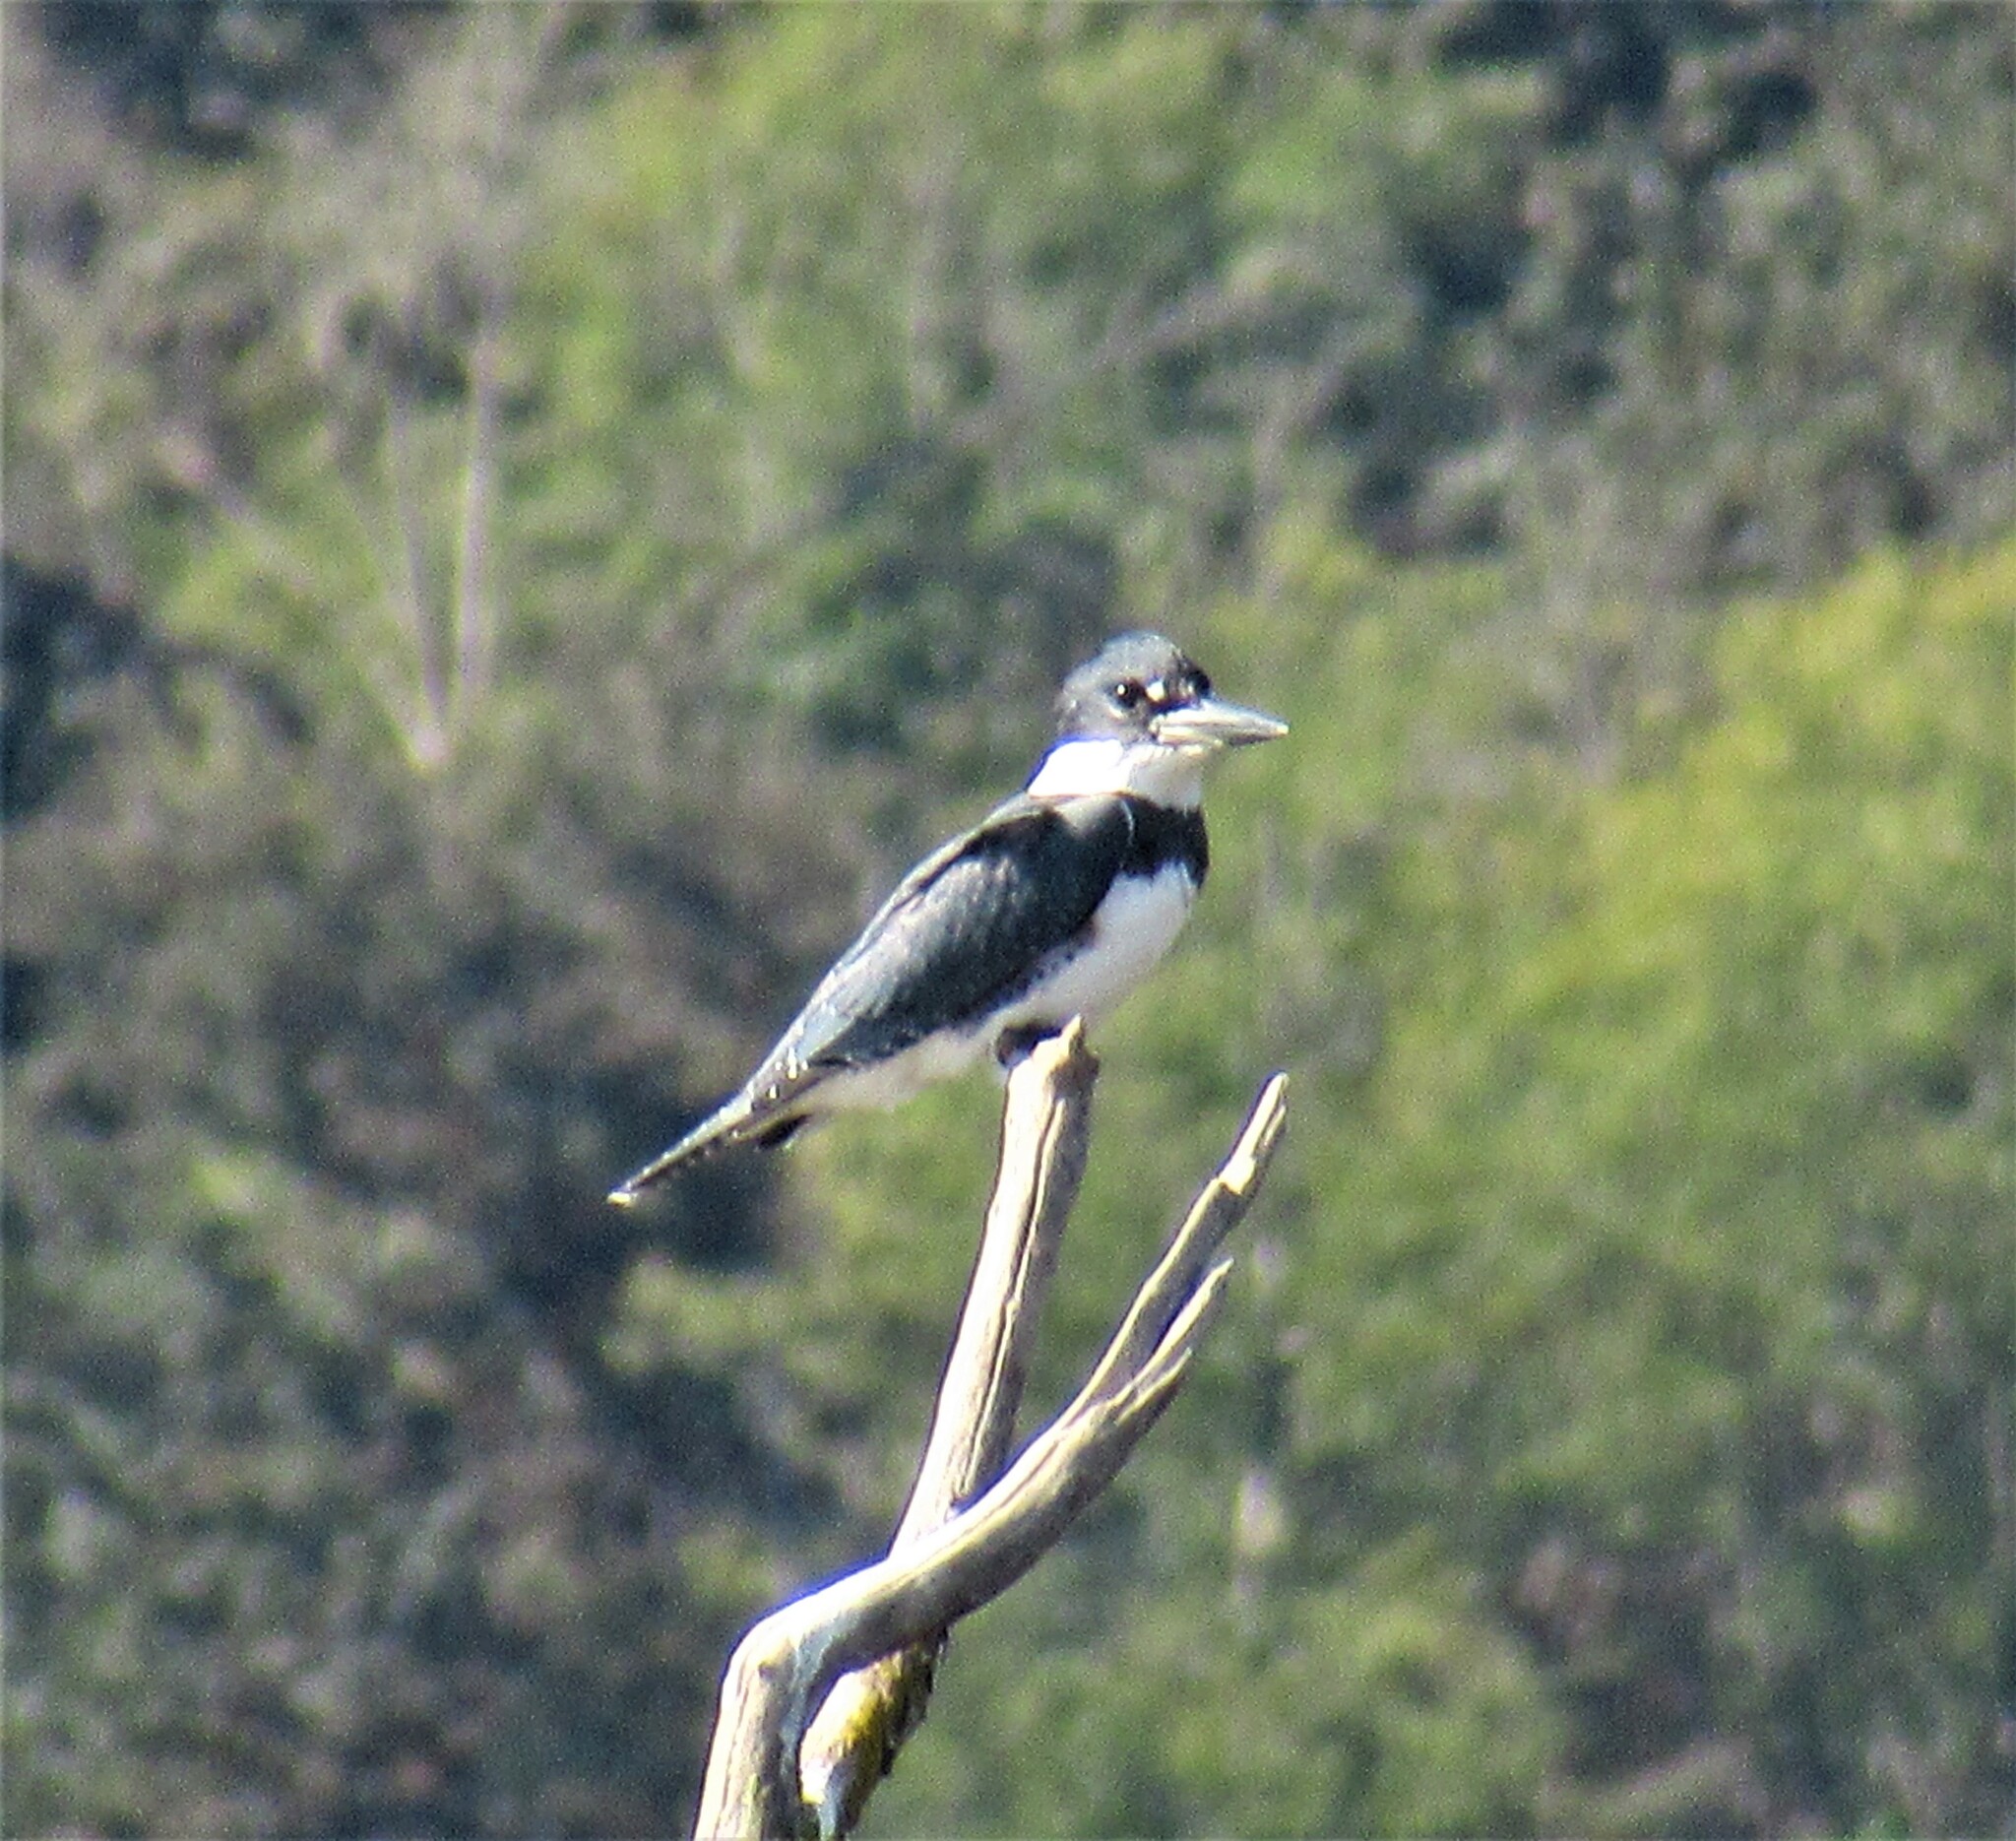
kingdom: Animalia
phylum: Chordata
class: Aves
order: Coraciiformes
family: Alcedinidae
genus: Megaceryle
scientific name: Megaceryle alcyon
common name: Belted kingfisher
